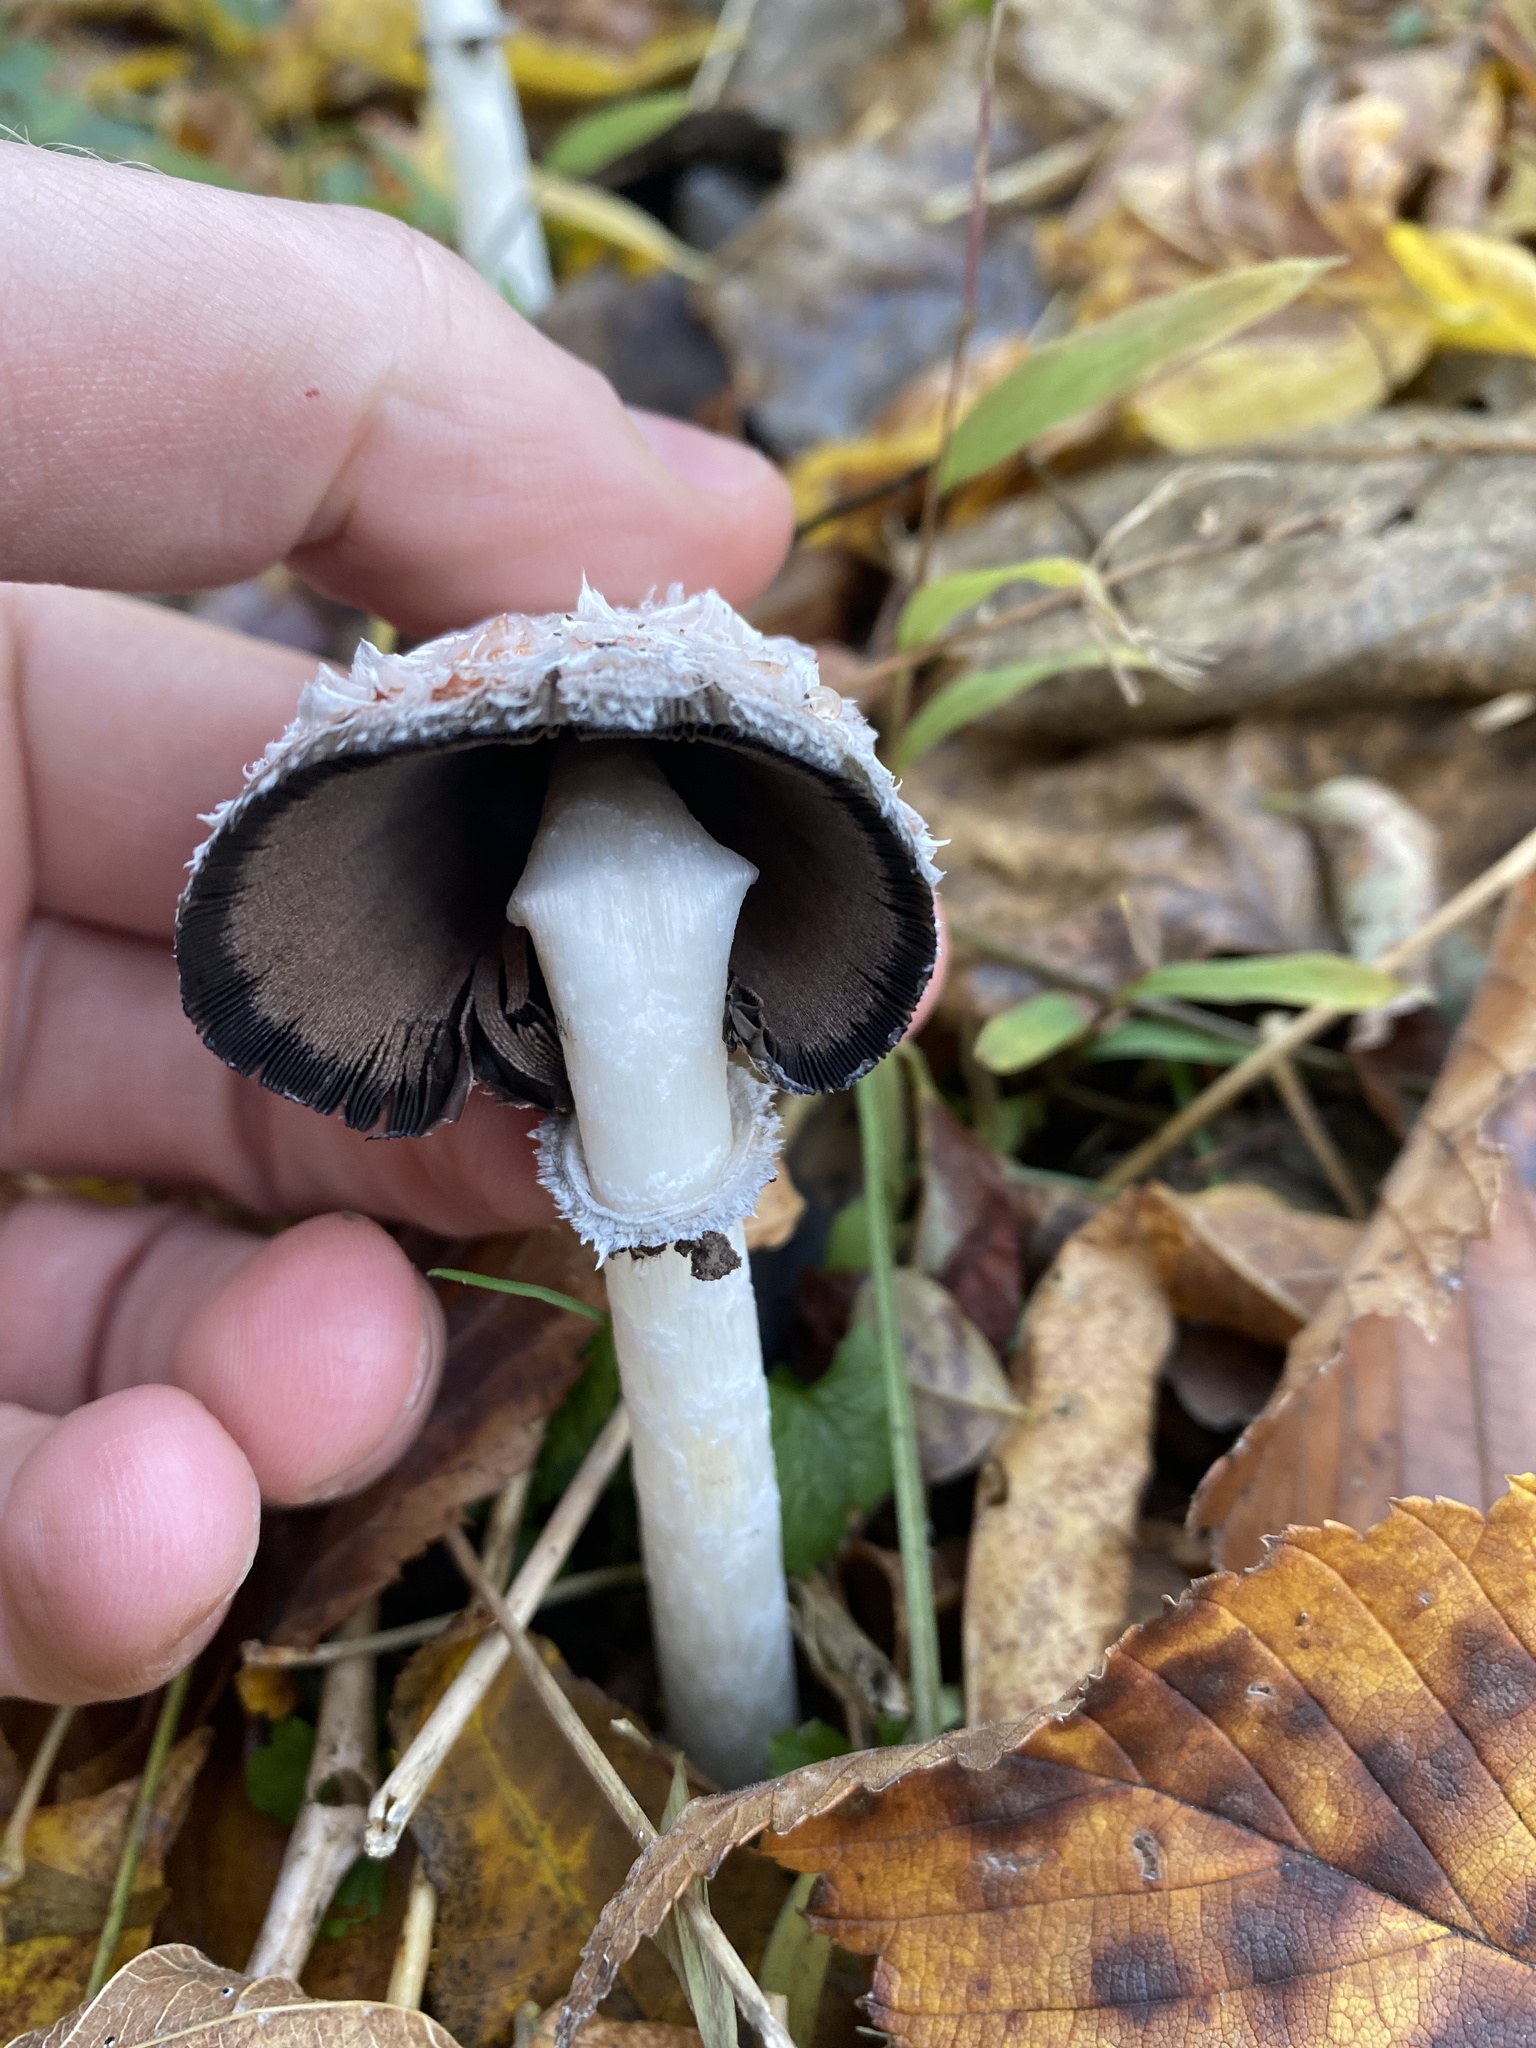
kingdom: Fungi
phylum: Basidiomycota
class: Agaricomycetes
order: Agaricales
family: Agaricaceae
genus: Coprinus
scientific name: Coprinus comatus
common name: Lawyer's wig
